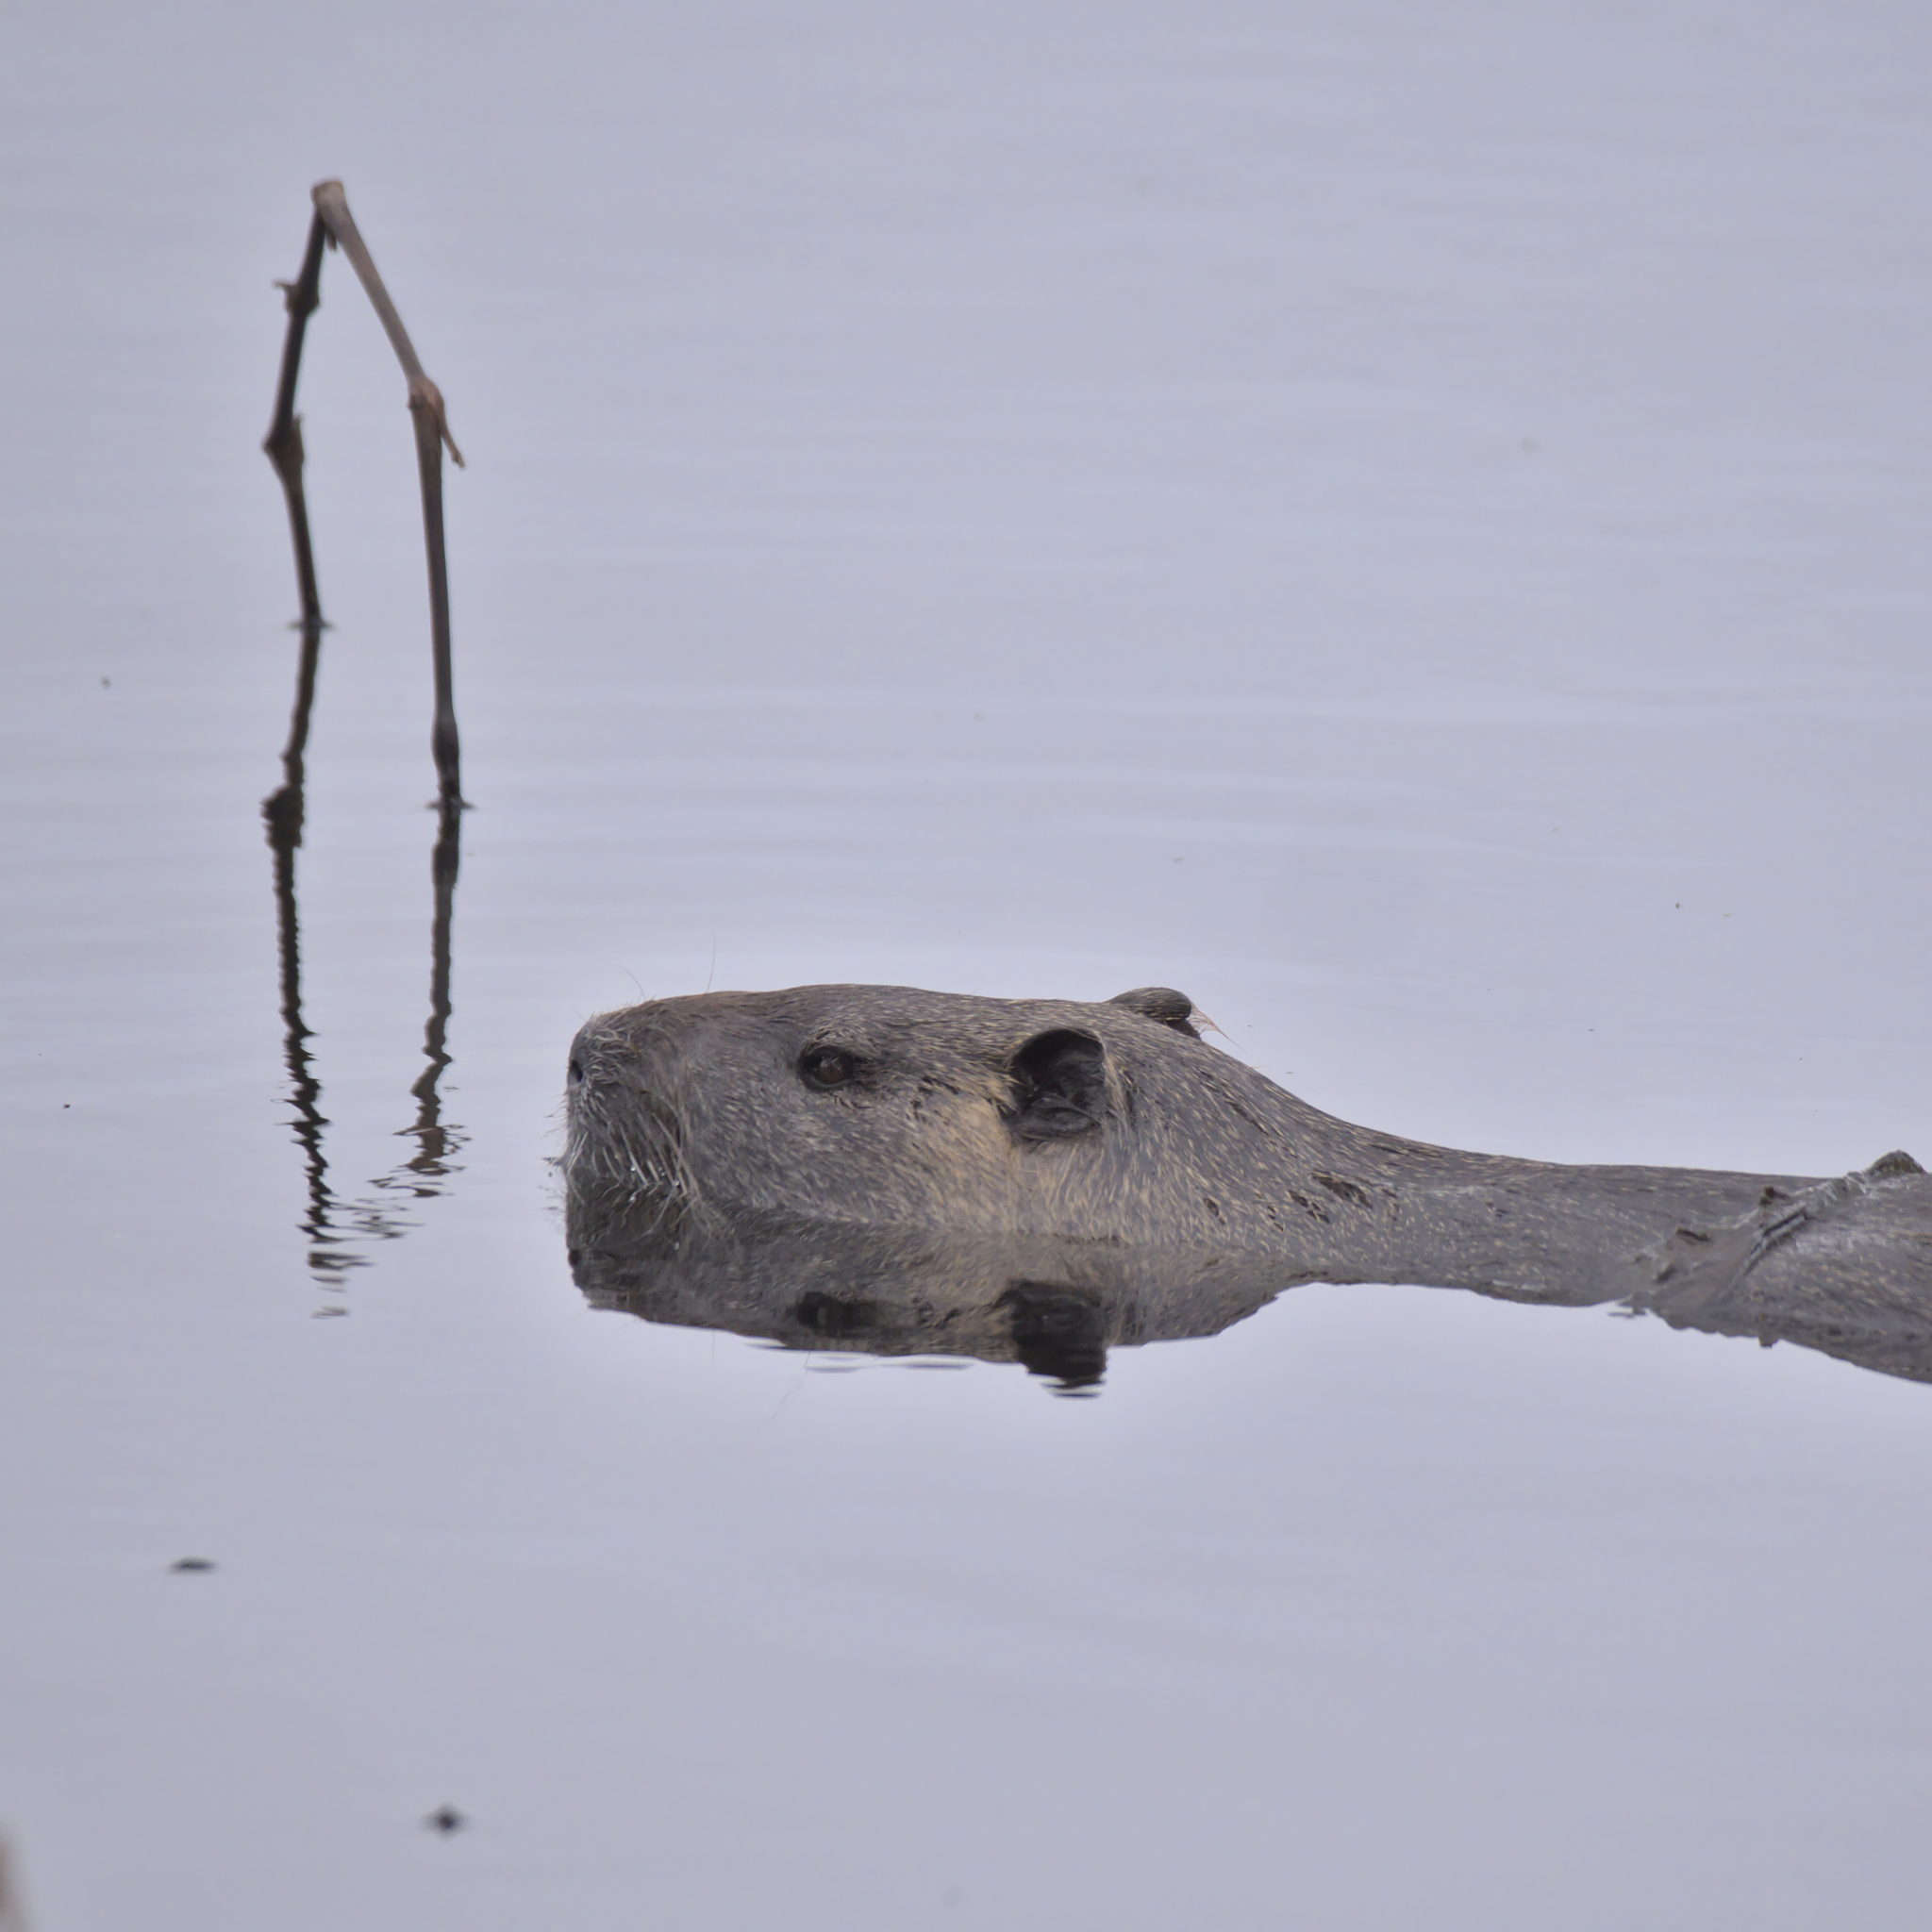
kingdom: Animalia
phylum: Chordata
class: Mammalia
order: Rodentia
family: Myocastoridae
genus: Myocastor
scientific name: Myocastor coypus
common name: Coypu
